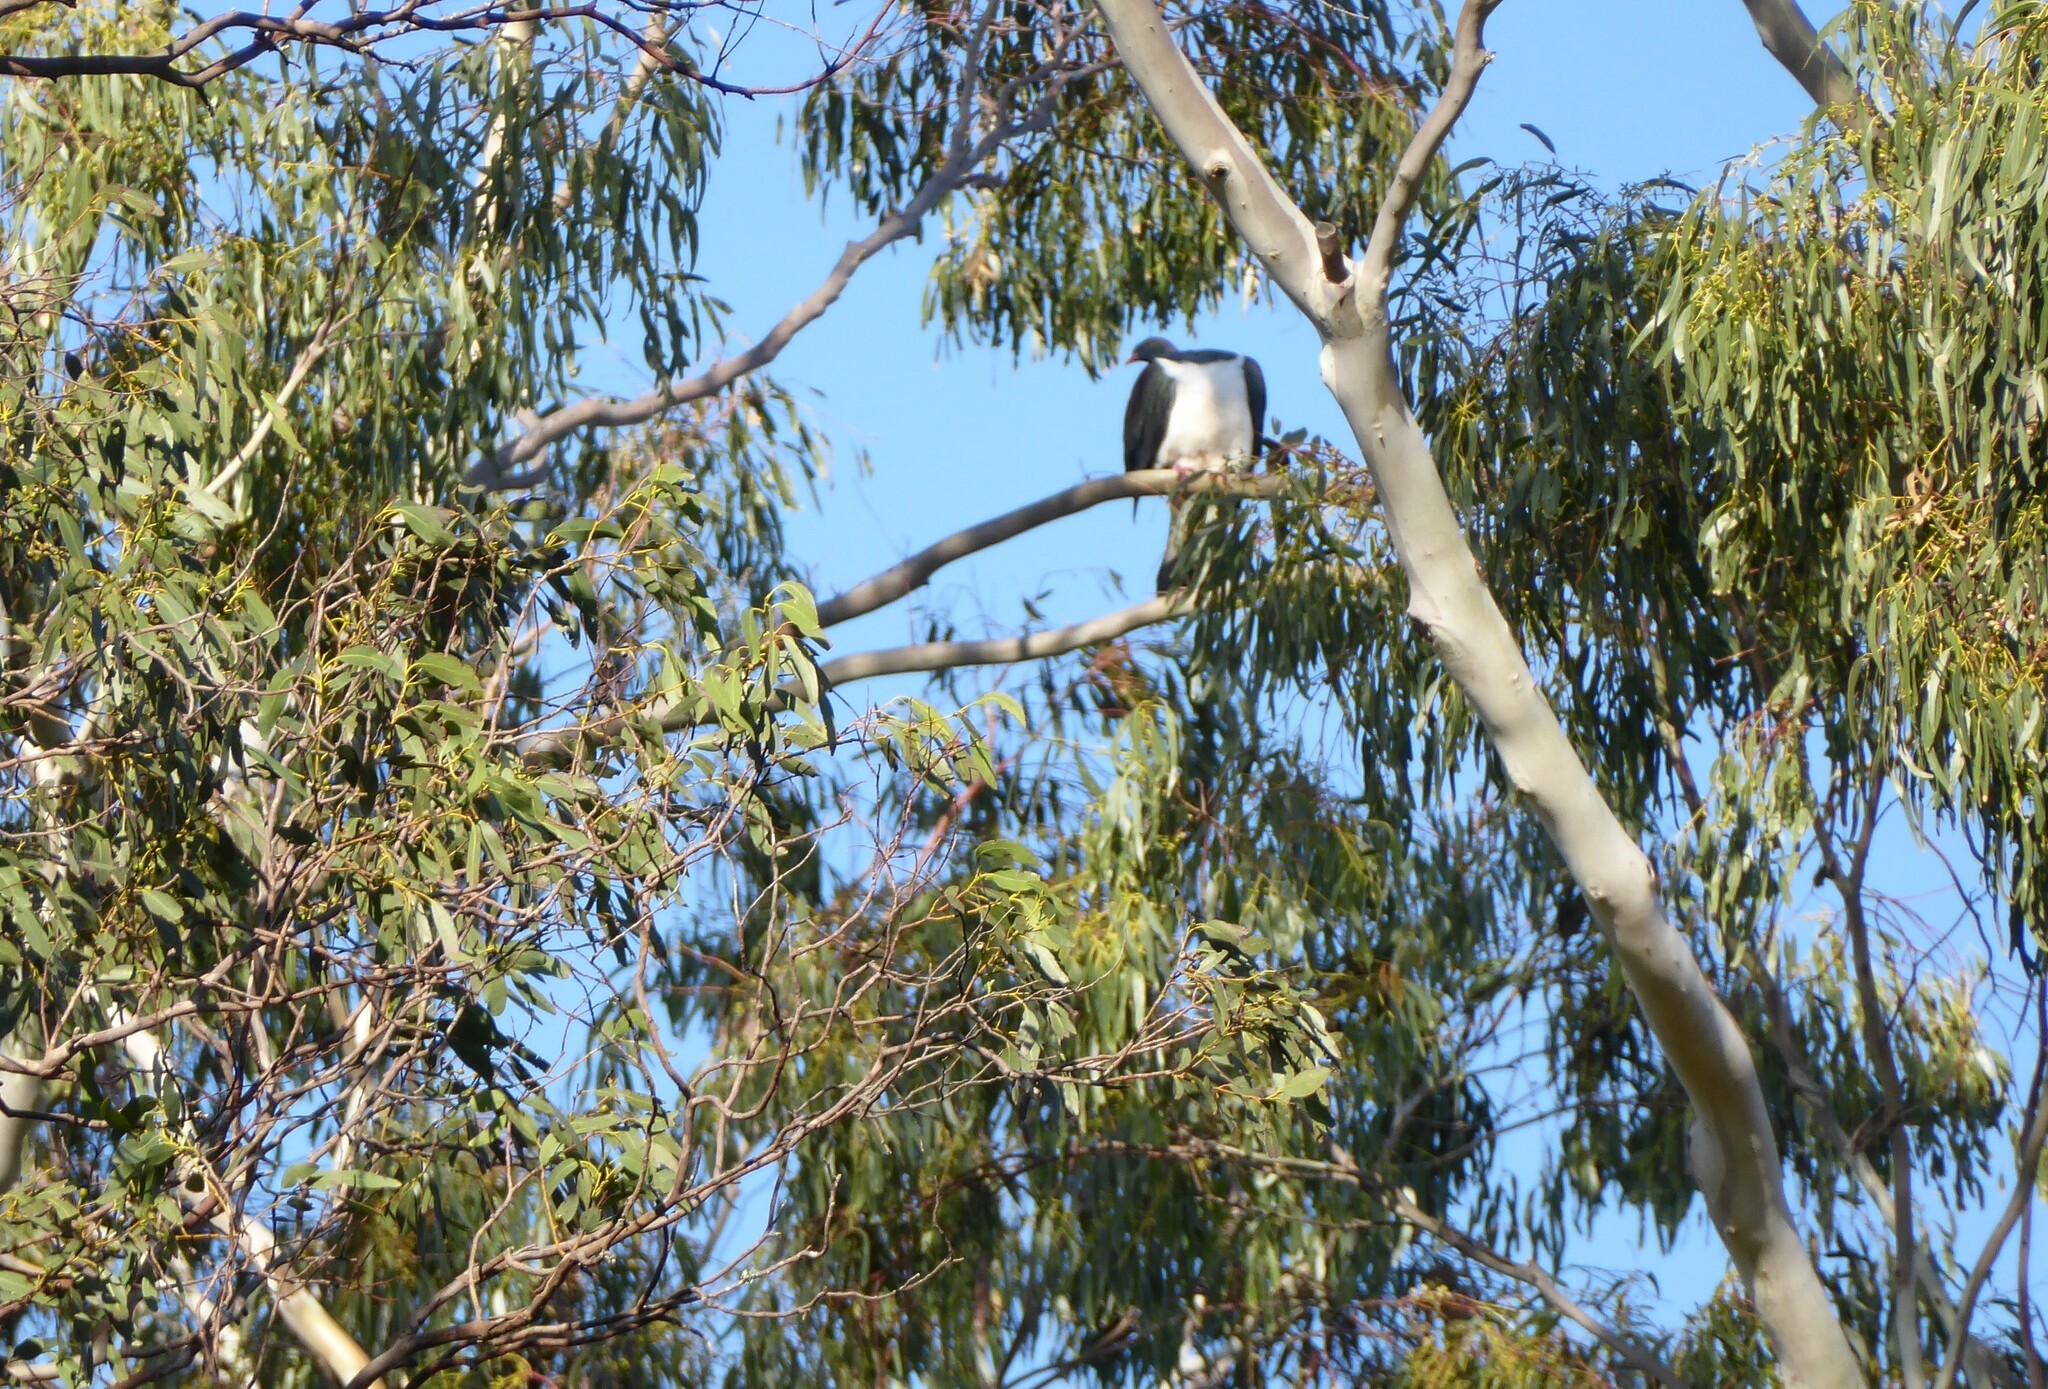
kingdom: Animalia
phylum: Chordata
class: Aves
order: Columbiformes
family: Columbidae
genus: Hemiphaga
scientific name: Hemiphaga novaeseelandiae
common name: New zealand pigeon
